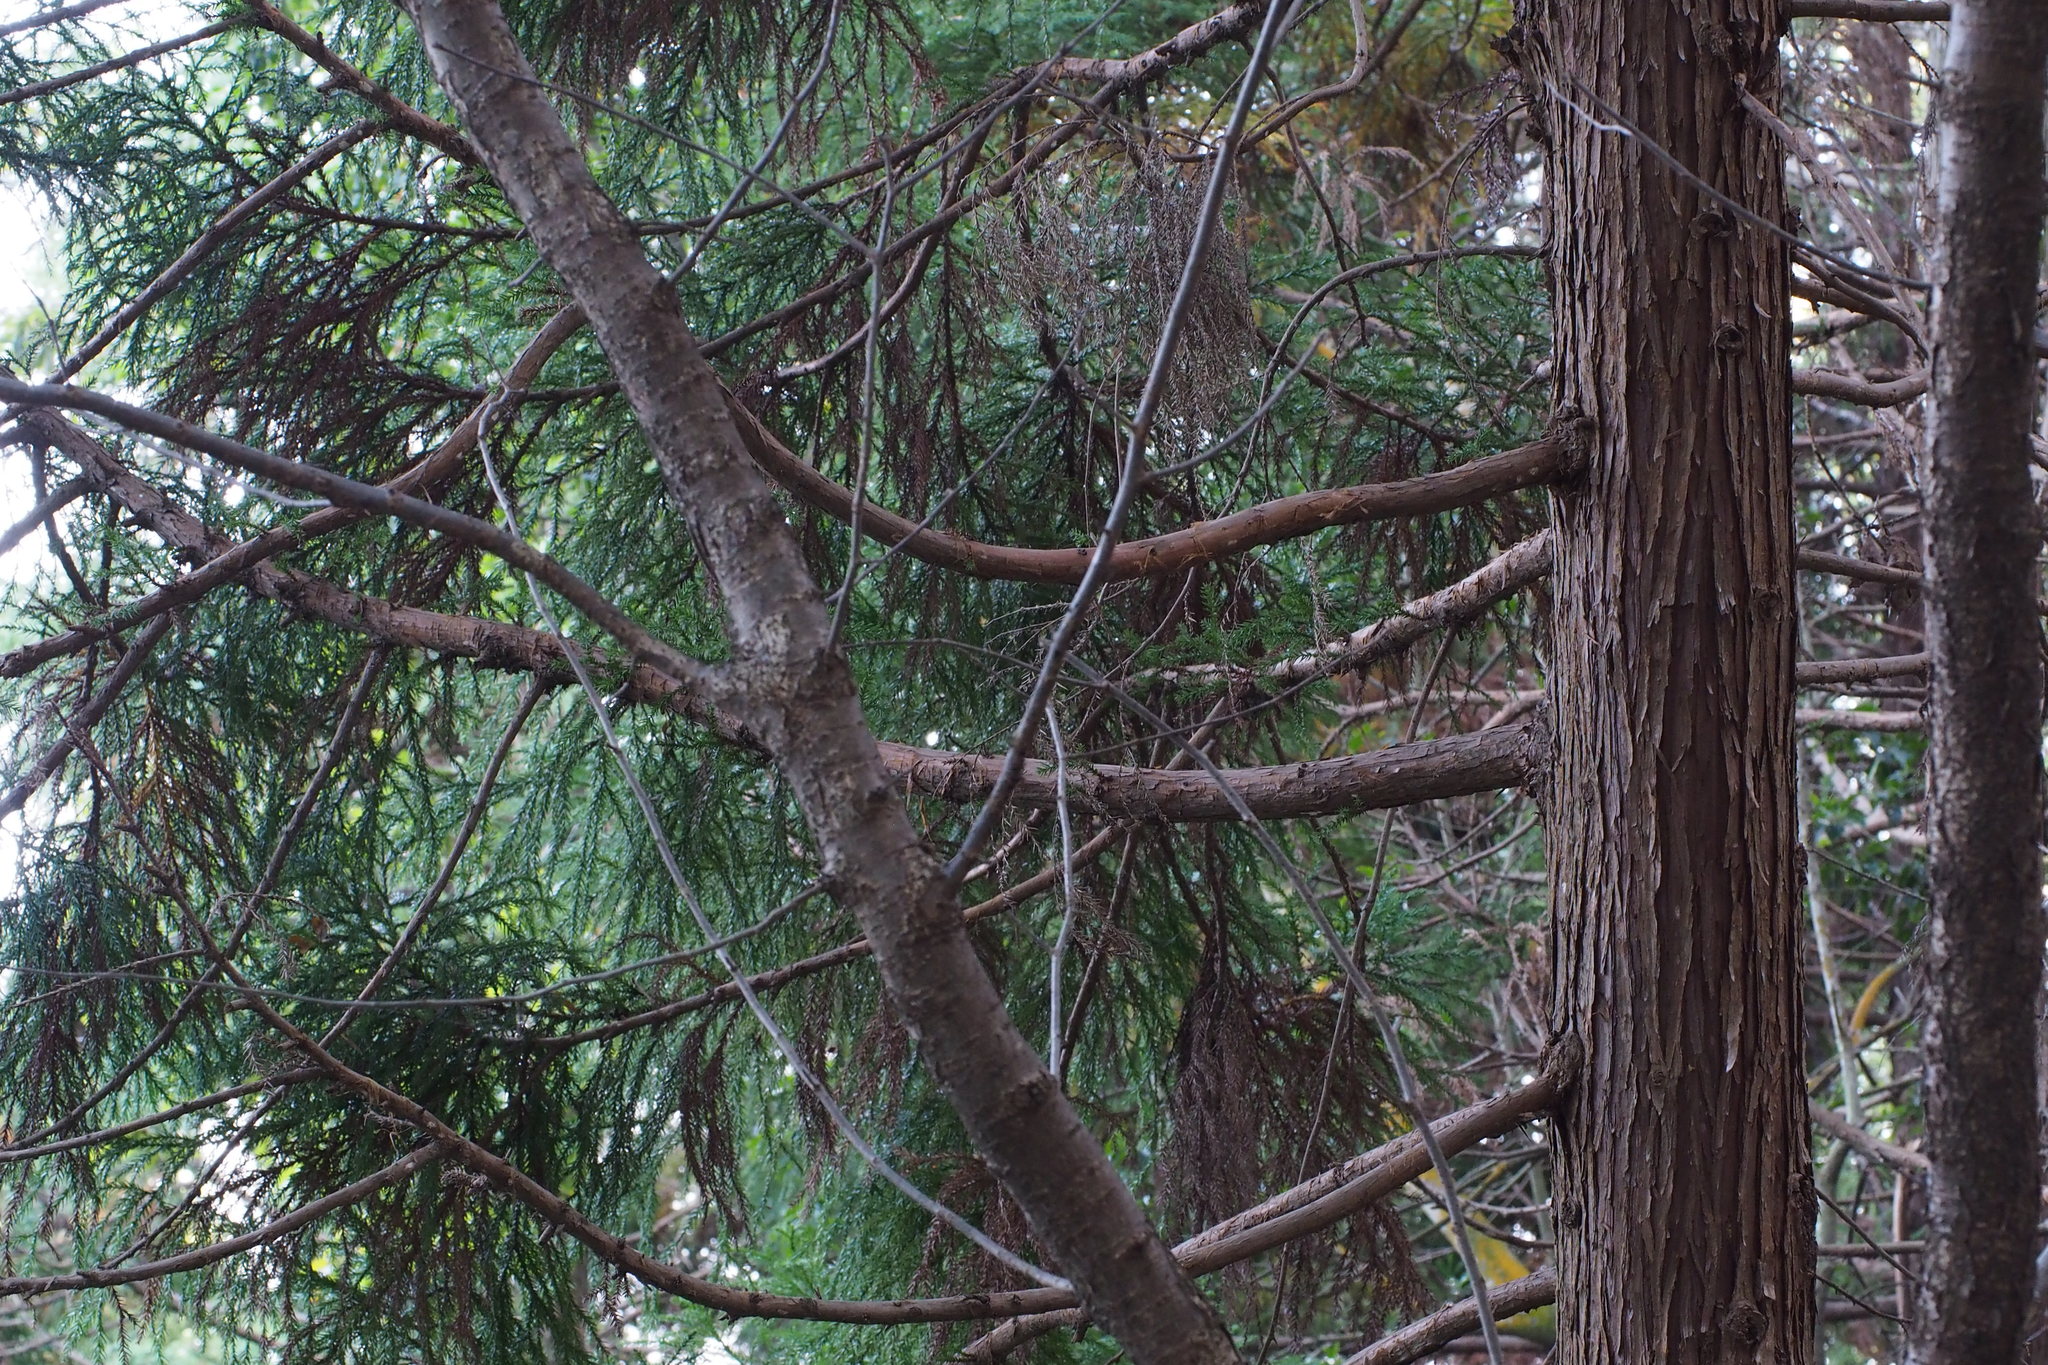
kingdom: Plantae
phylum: Tracheophyta
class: Pinopsida
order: Pinales
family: Cupressaceae
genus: Cryptomeria
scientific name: Cryptomeria japonica
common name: Japanese cedar
